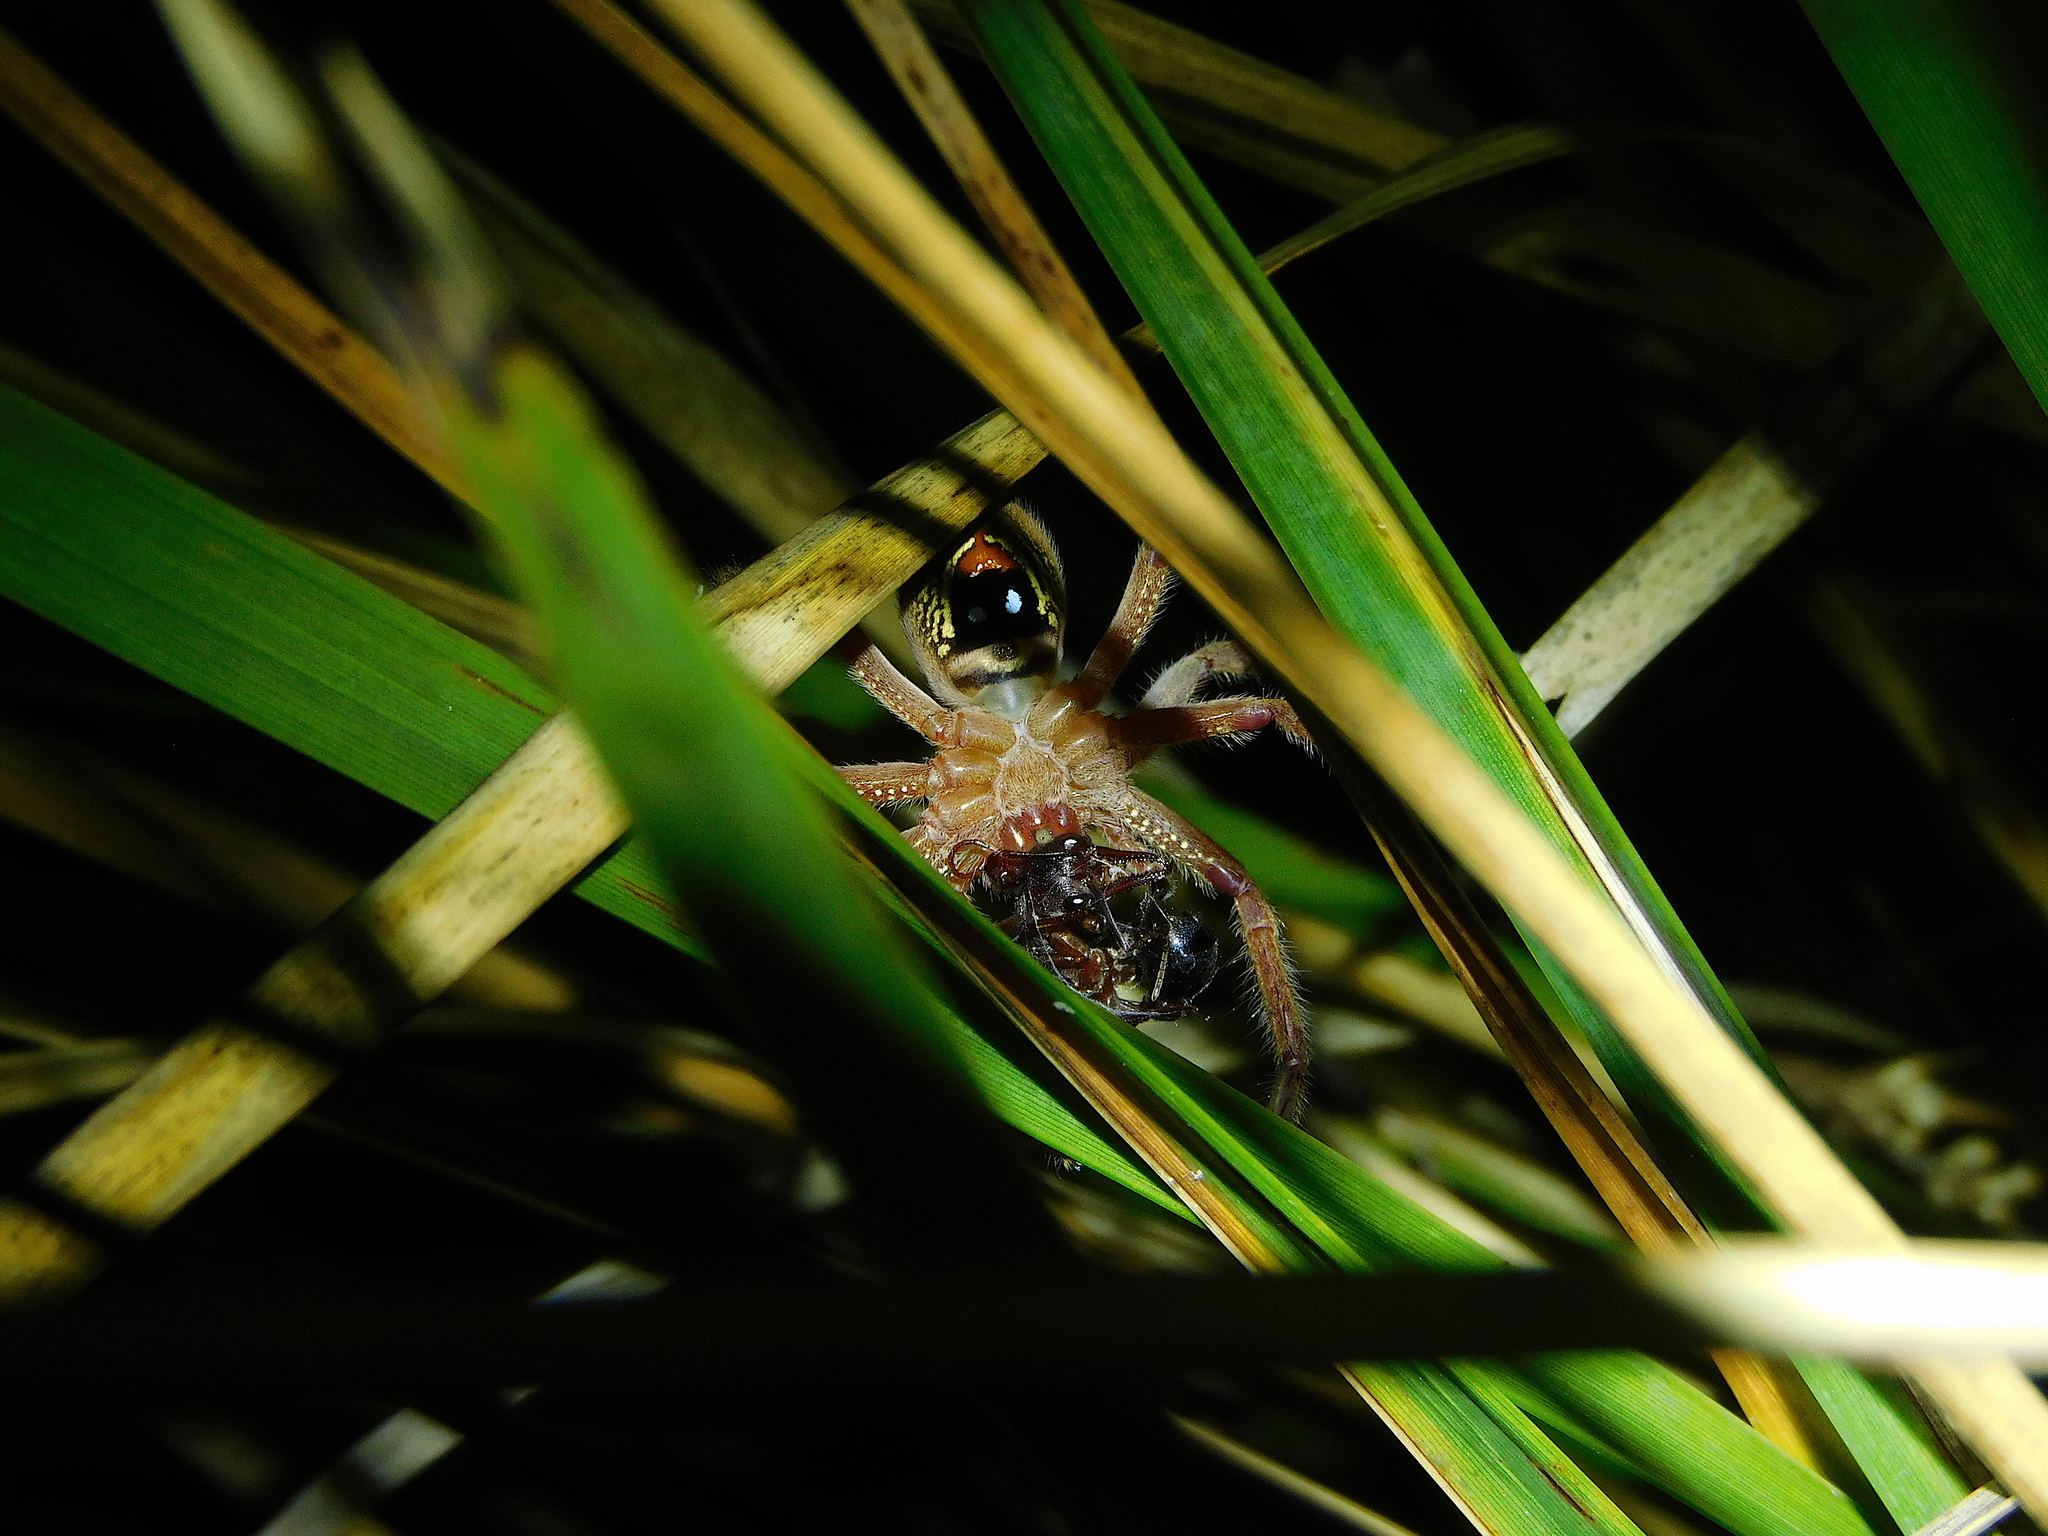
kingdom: Animalia
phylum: Arthropoda
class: Arachnida
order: Araneae
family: Sparassidae
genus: Neosparassus
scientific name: Neosparassus diana
